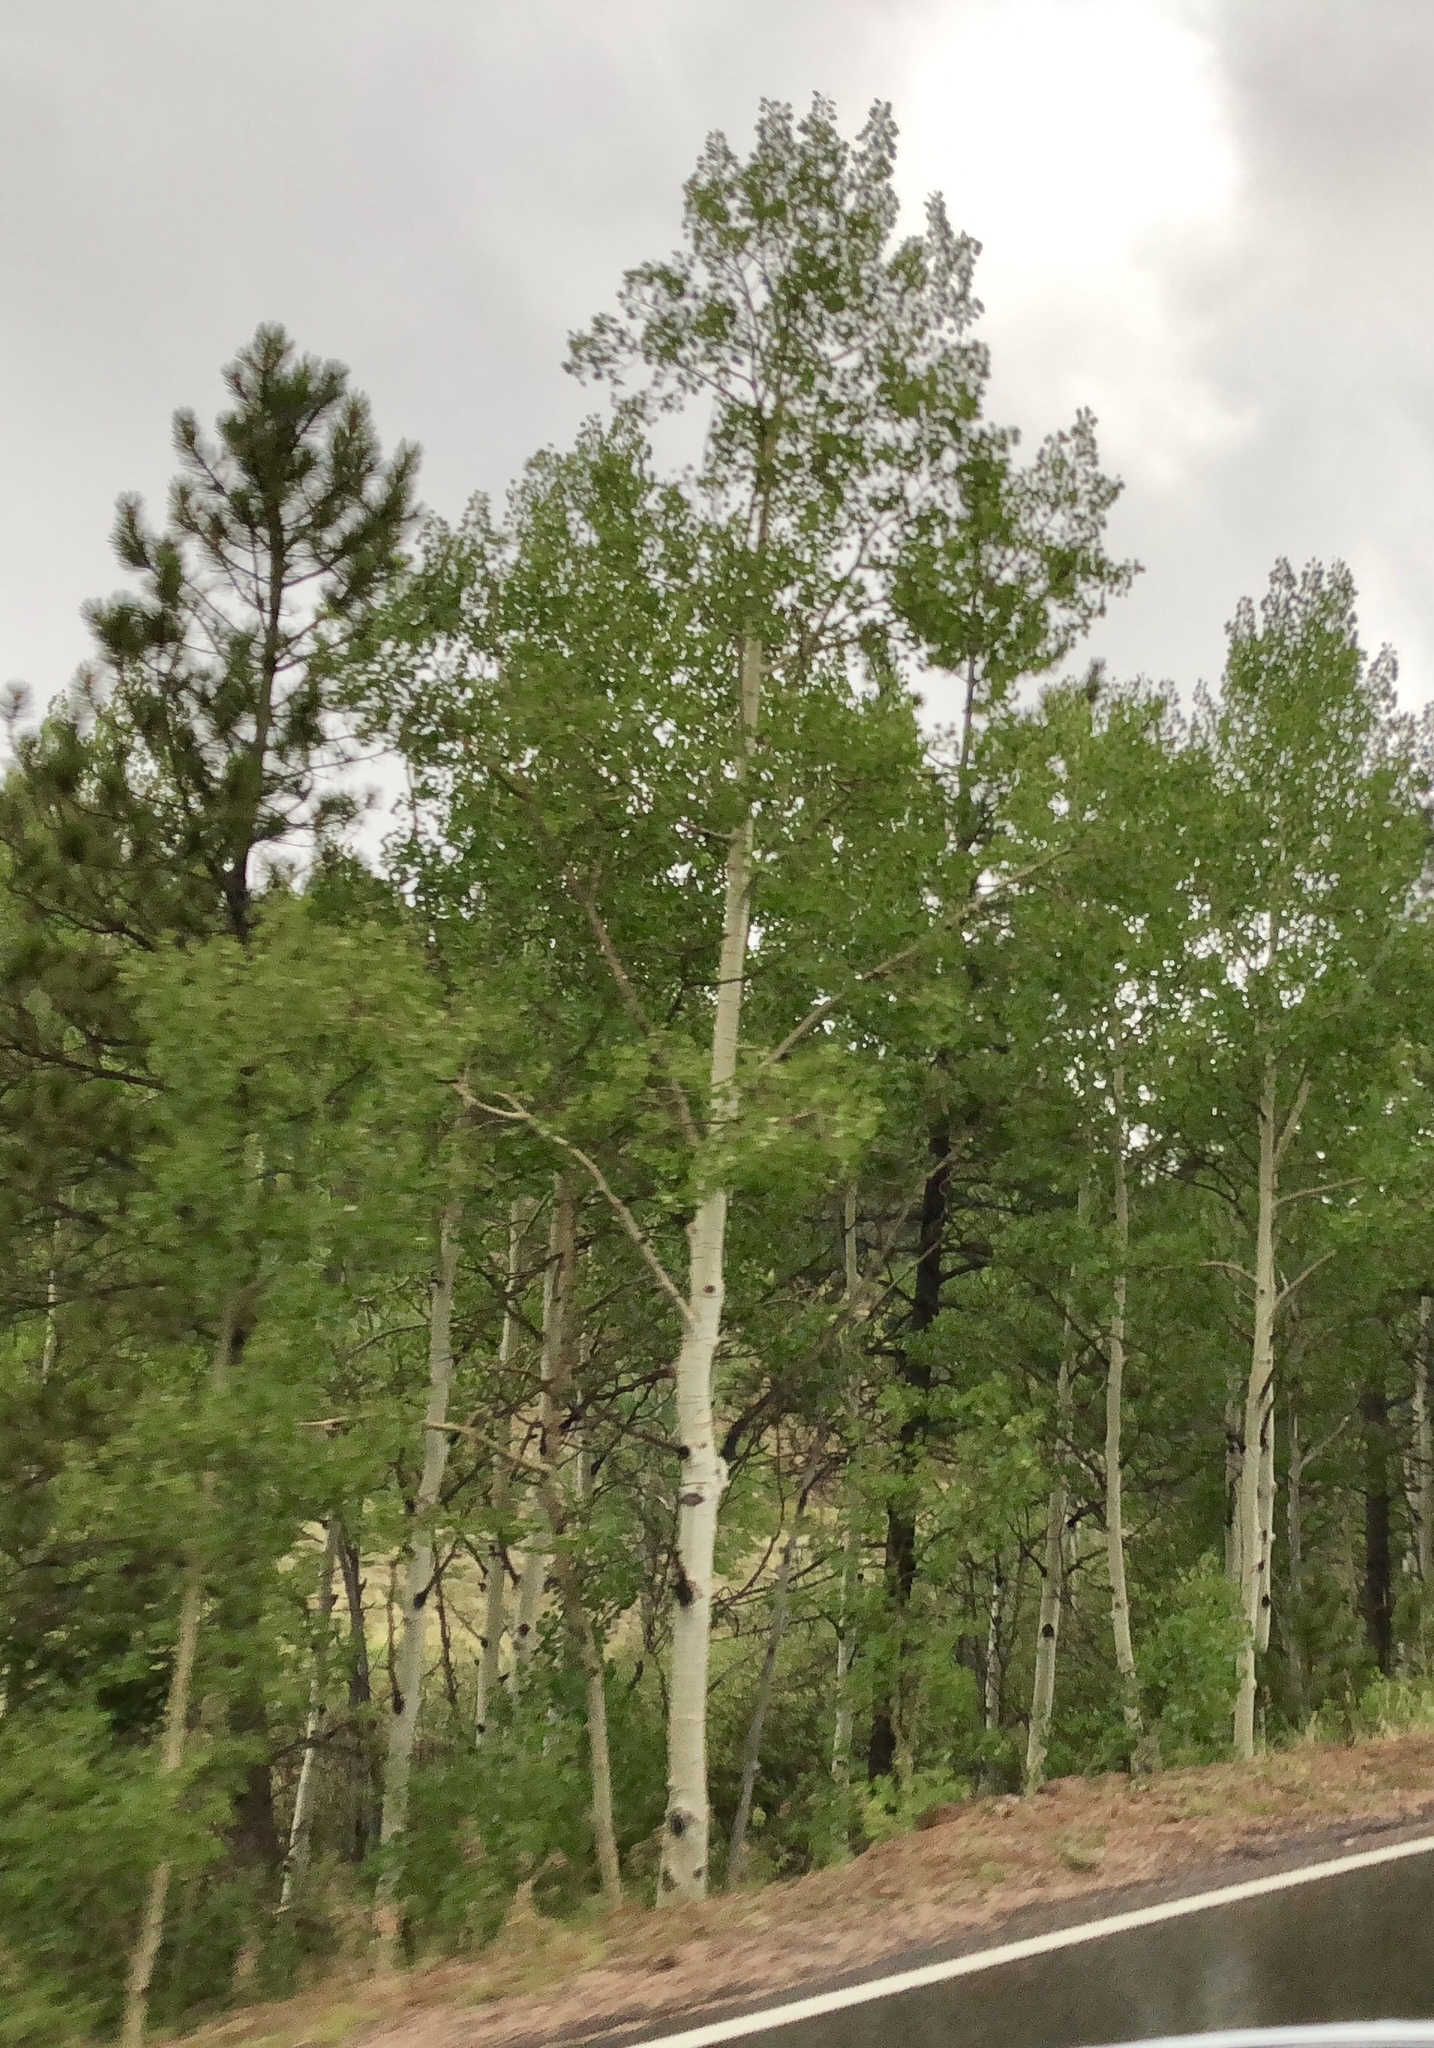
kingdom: Plantae
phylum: Tracheophyta
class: Magnoliopsida
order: Malpighiales
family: Salicaceae
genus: Populus
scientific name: Populus tremuloides
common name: Quaking aspen
